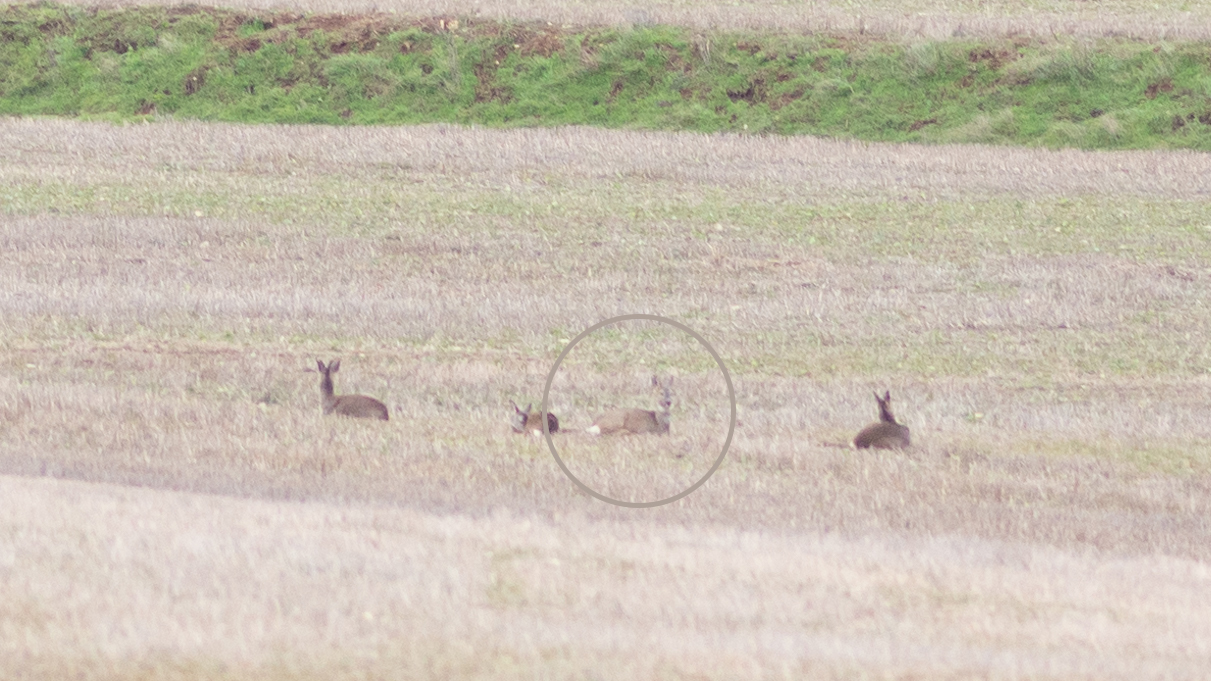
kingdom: Animalia
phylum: Chordata
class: Mammalia
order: Artiodactyla
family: Cervidae
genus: Capreolus
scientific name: Capreolus capreolus
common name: Western roe deer
